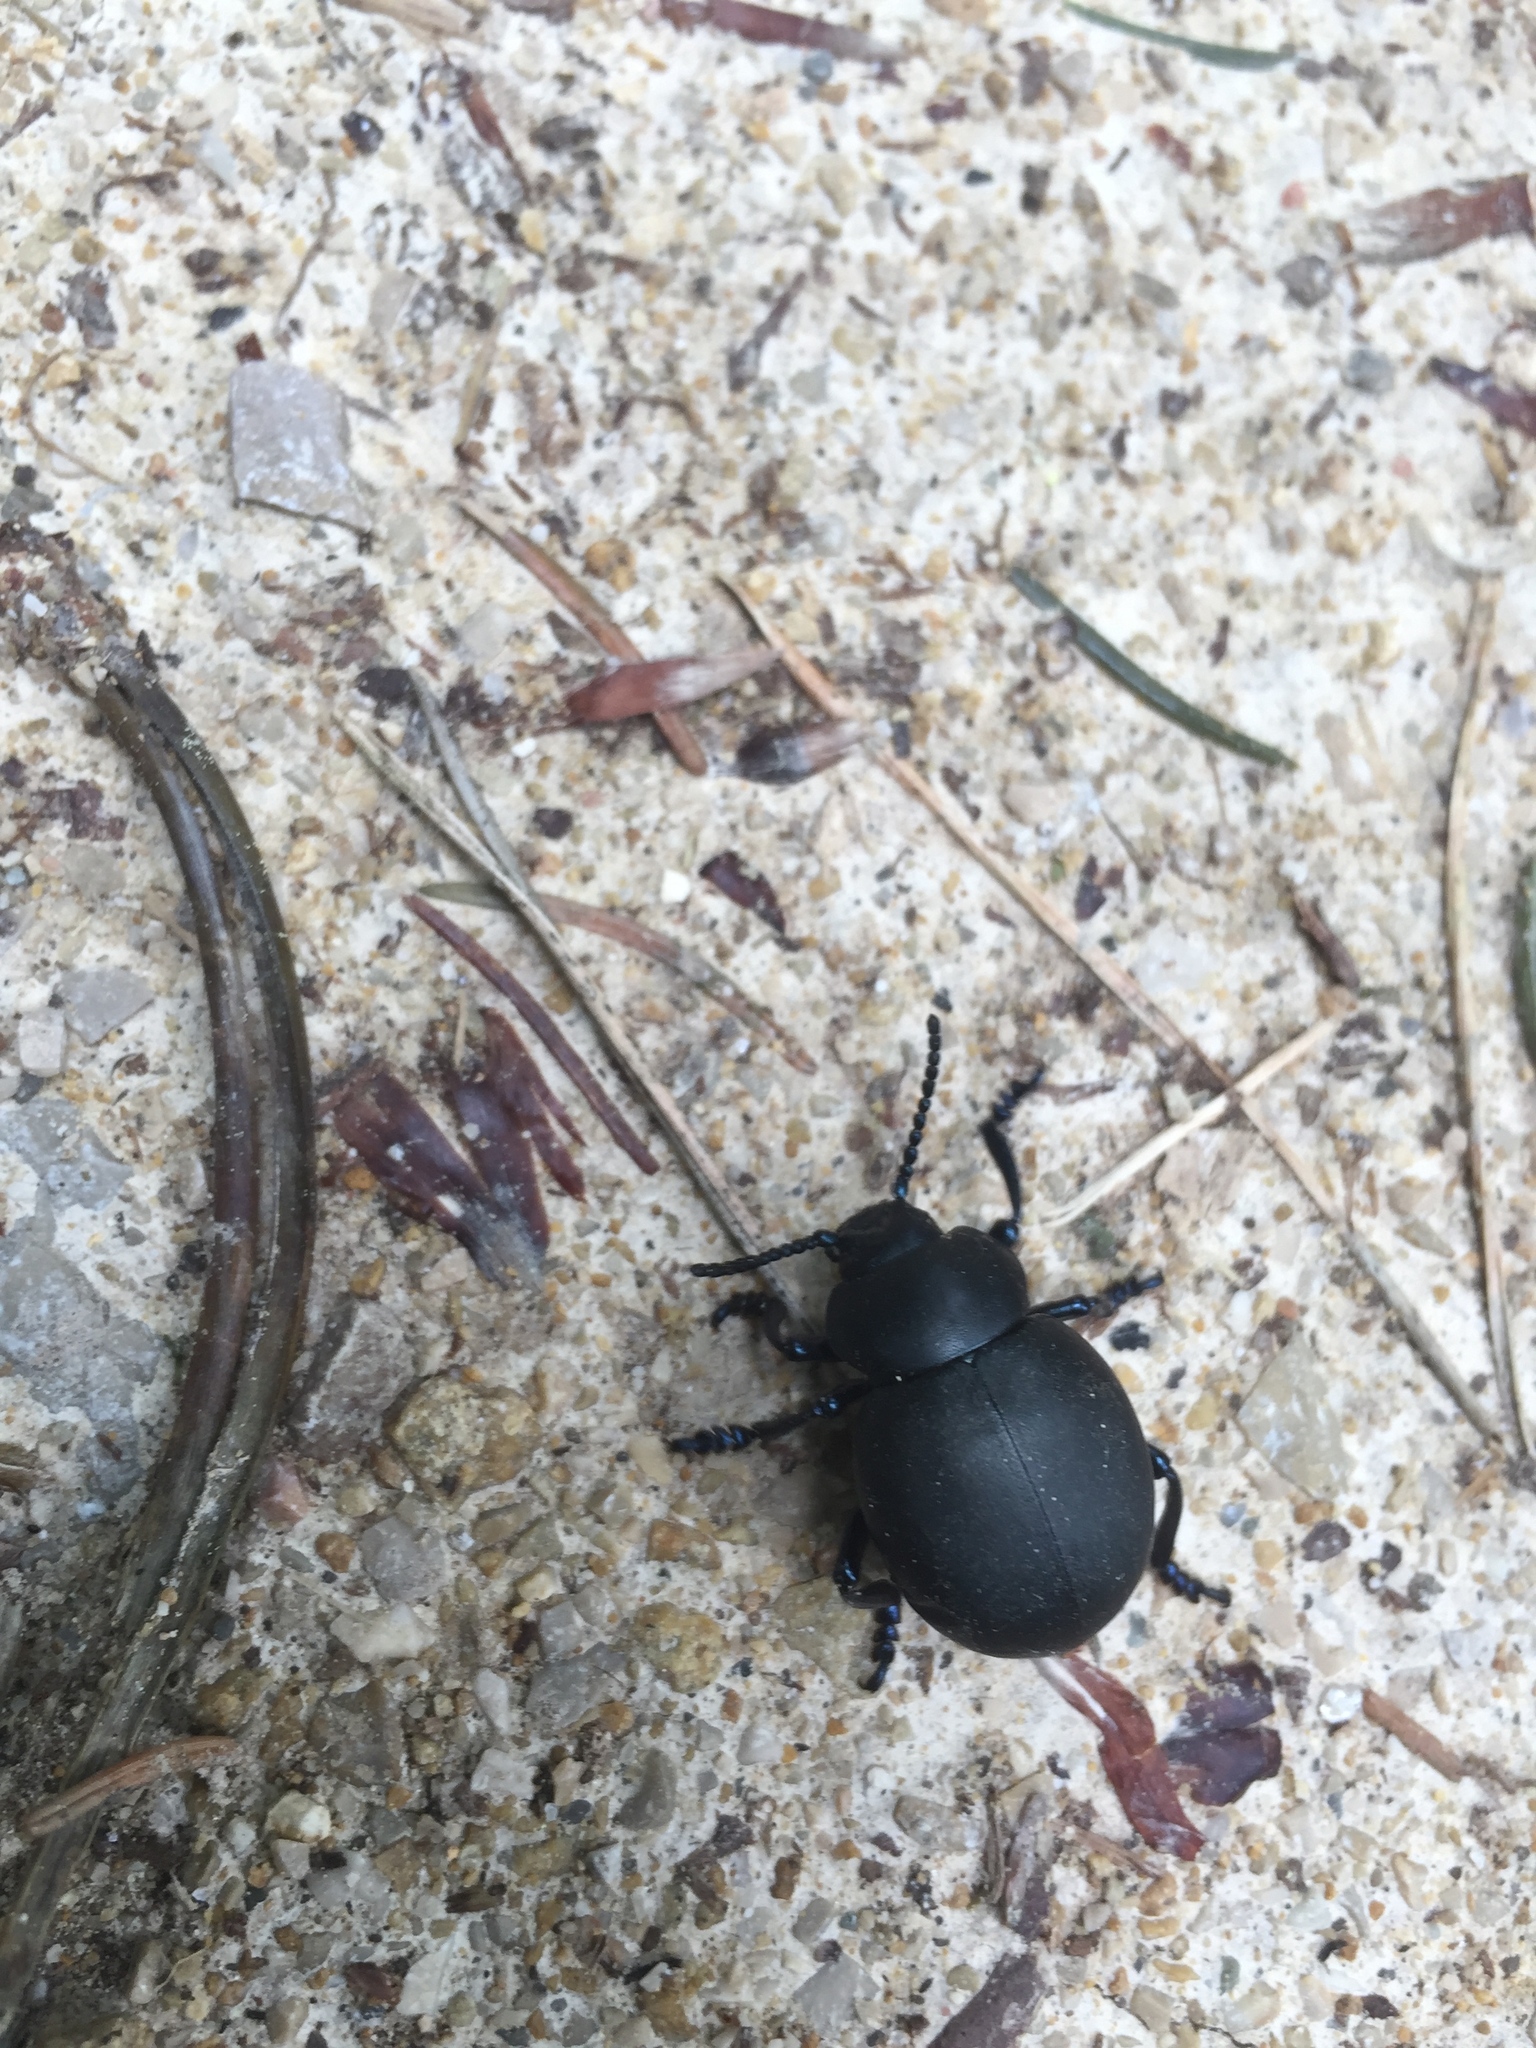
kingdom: Animalia
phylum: Arthropoda
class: Insecta
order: Coleoptera
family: Chrysomelidae
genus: Timarcha
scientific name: Timarcha tenebricosa
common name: Bloody-nosed beetle
